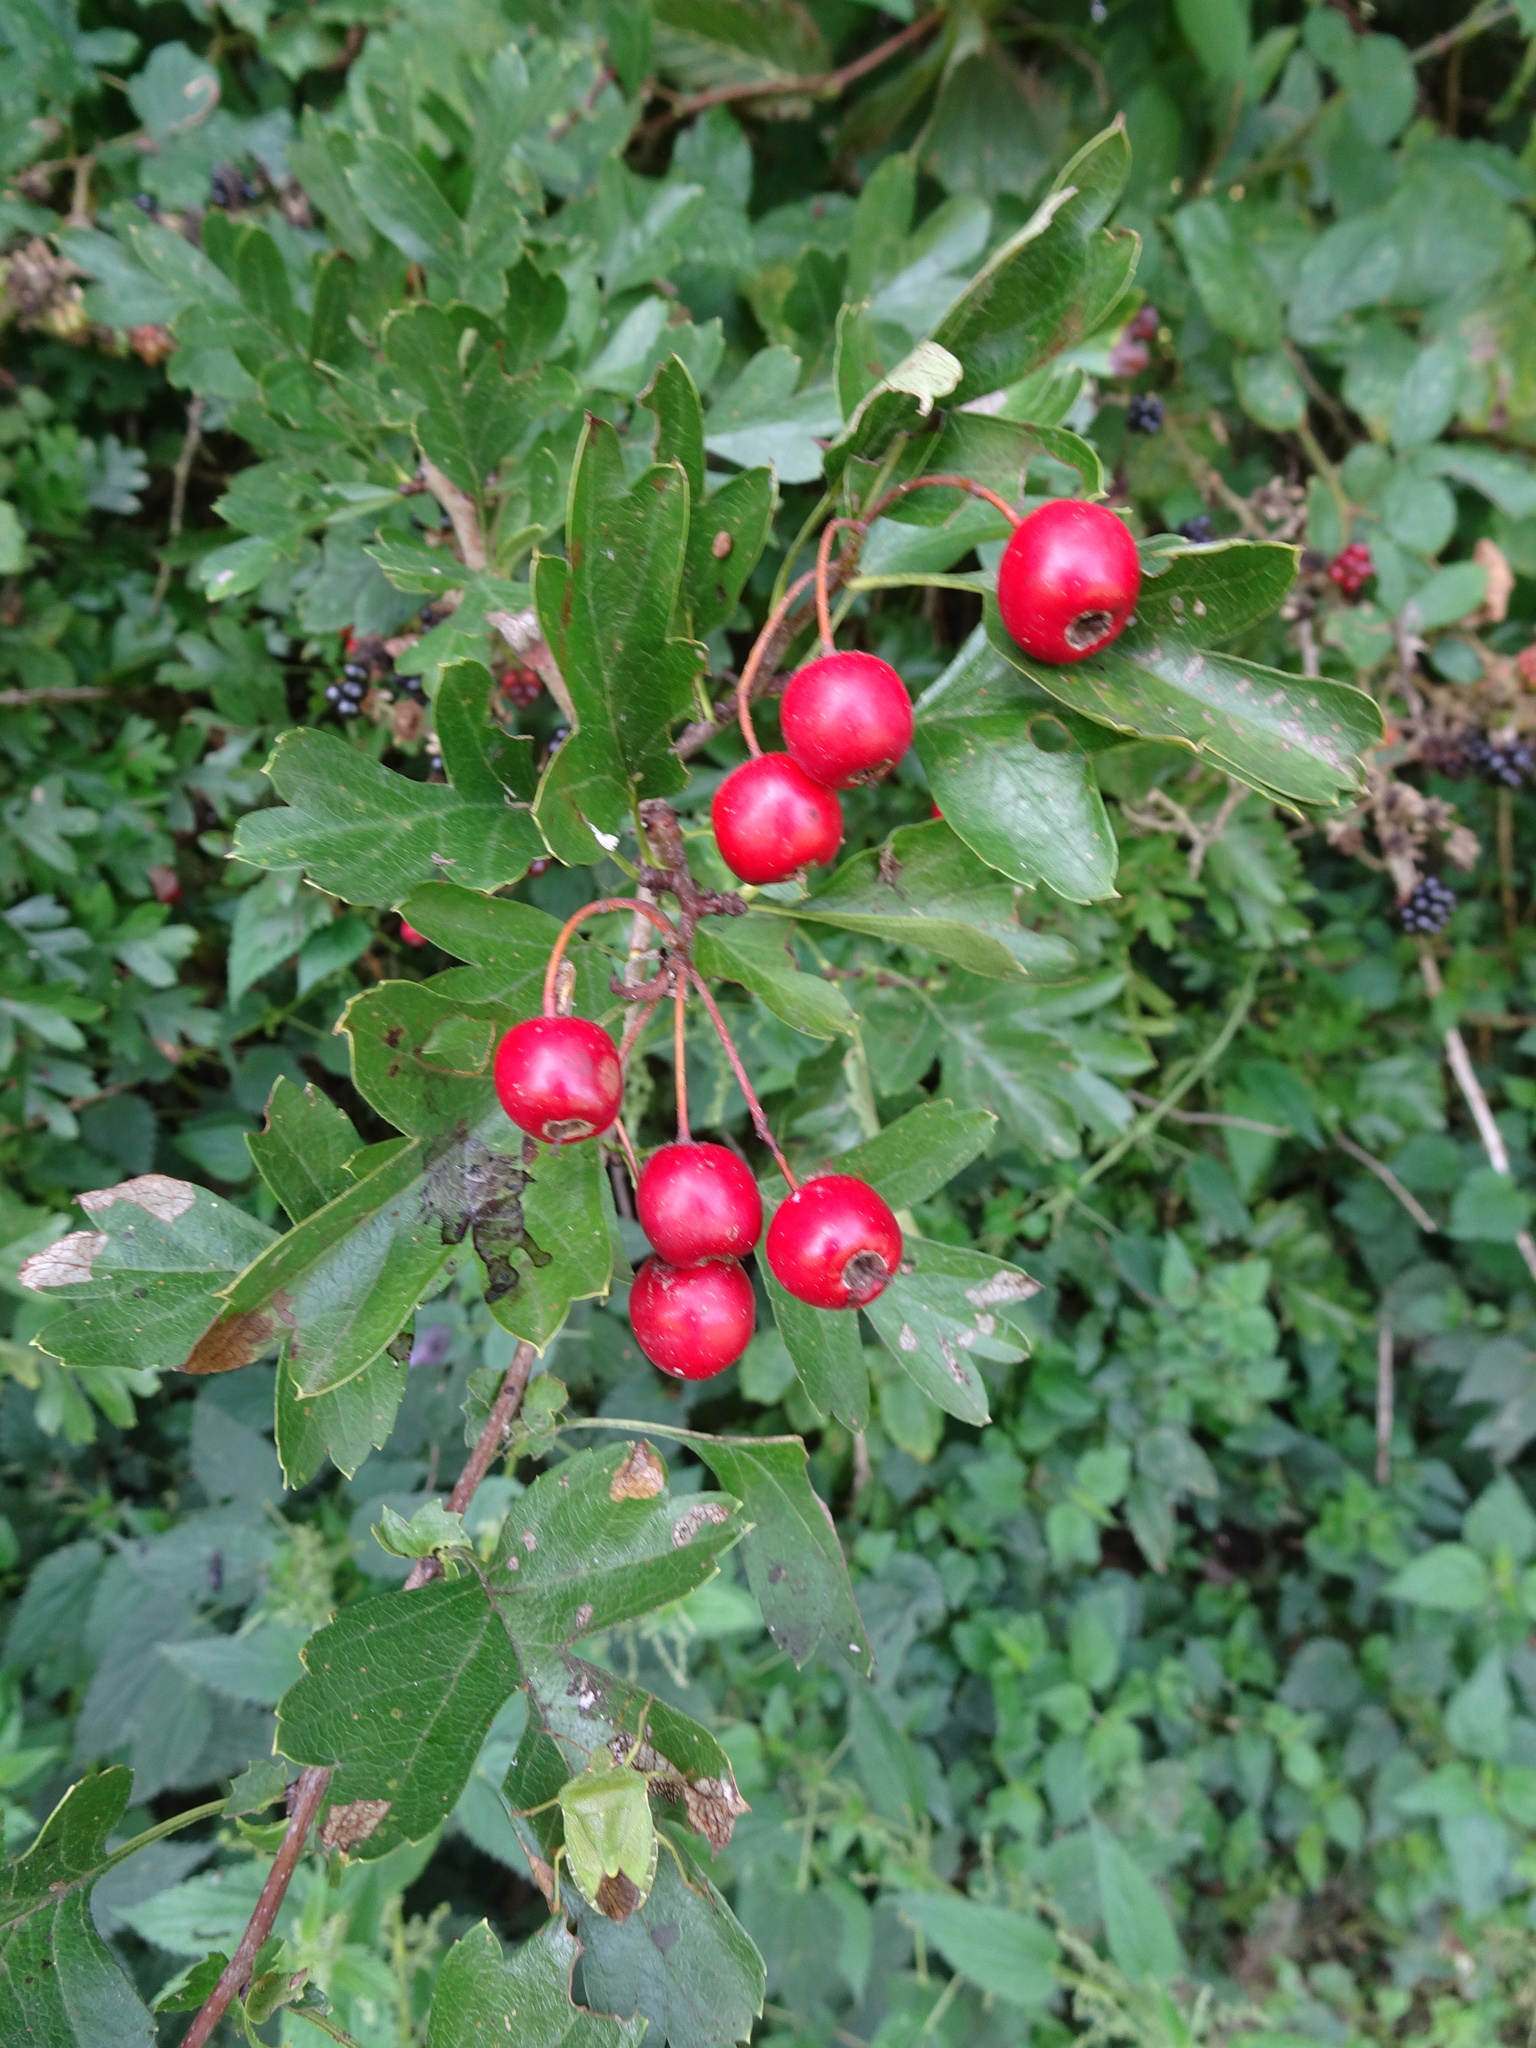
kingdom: Plantae
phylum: Tracheophyta
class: Magnoliopsida
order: Rosales
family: Rosaceae
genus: Crataegus
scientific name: Crataegus monogyna
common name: Hawthorn
